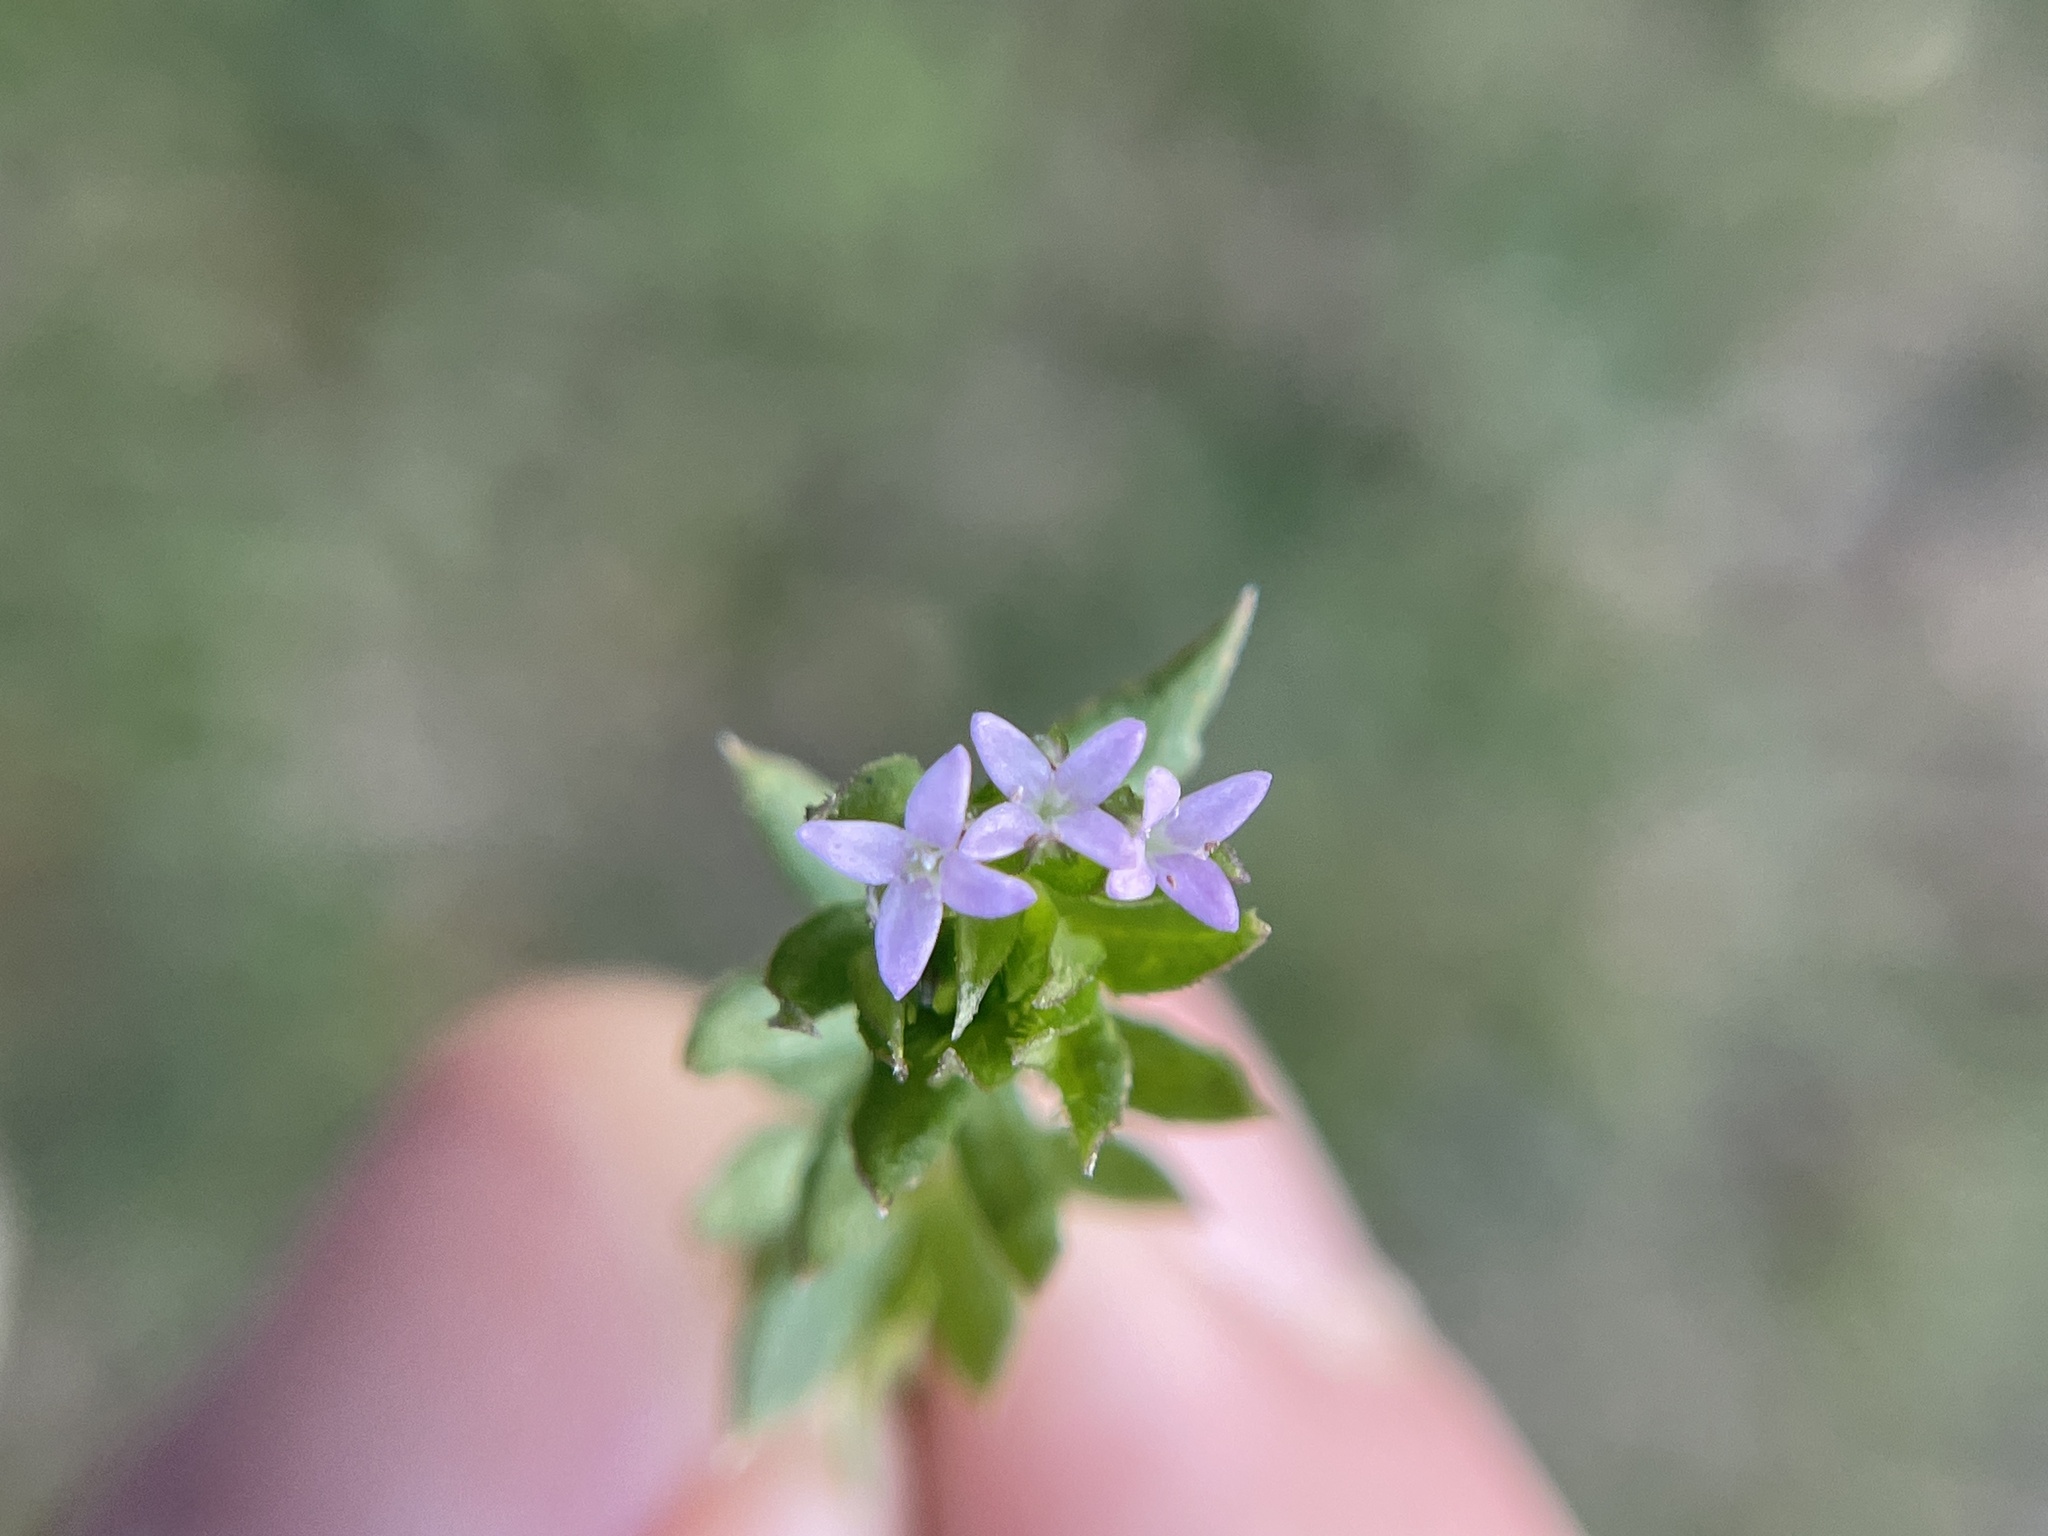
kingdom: Plantae
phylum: Tracheophyta
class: Magnoliopsida
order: Gentianales
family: Rubiaceae
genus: Sherardia
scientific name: Sherardia arvensis
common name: Field madder
